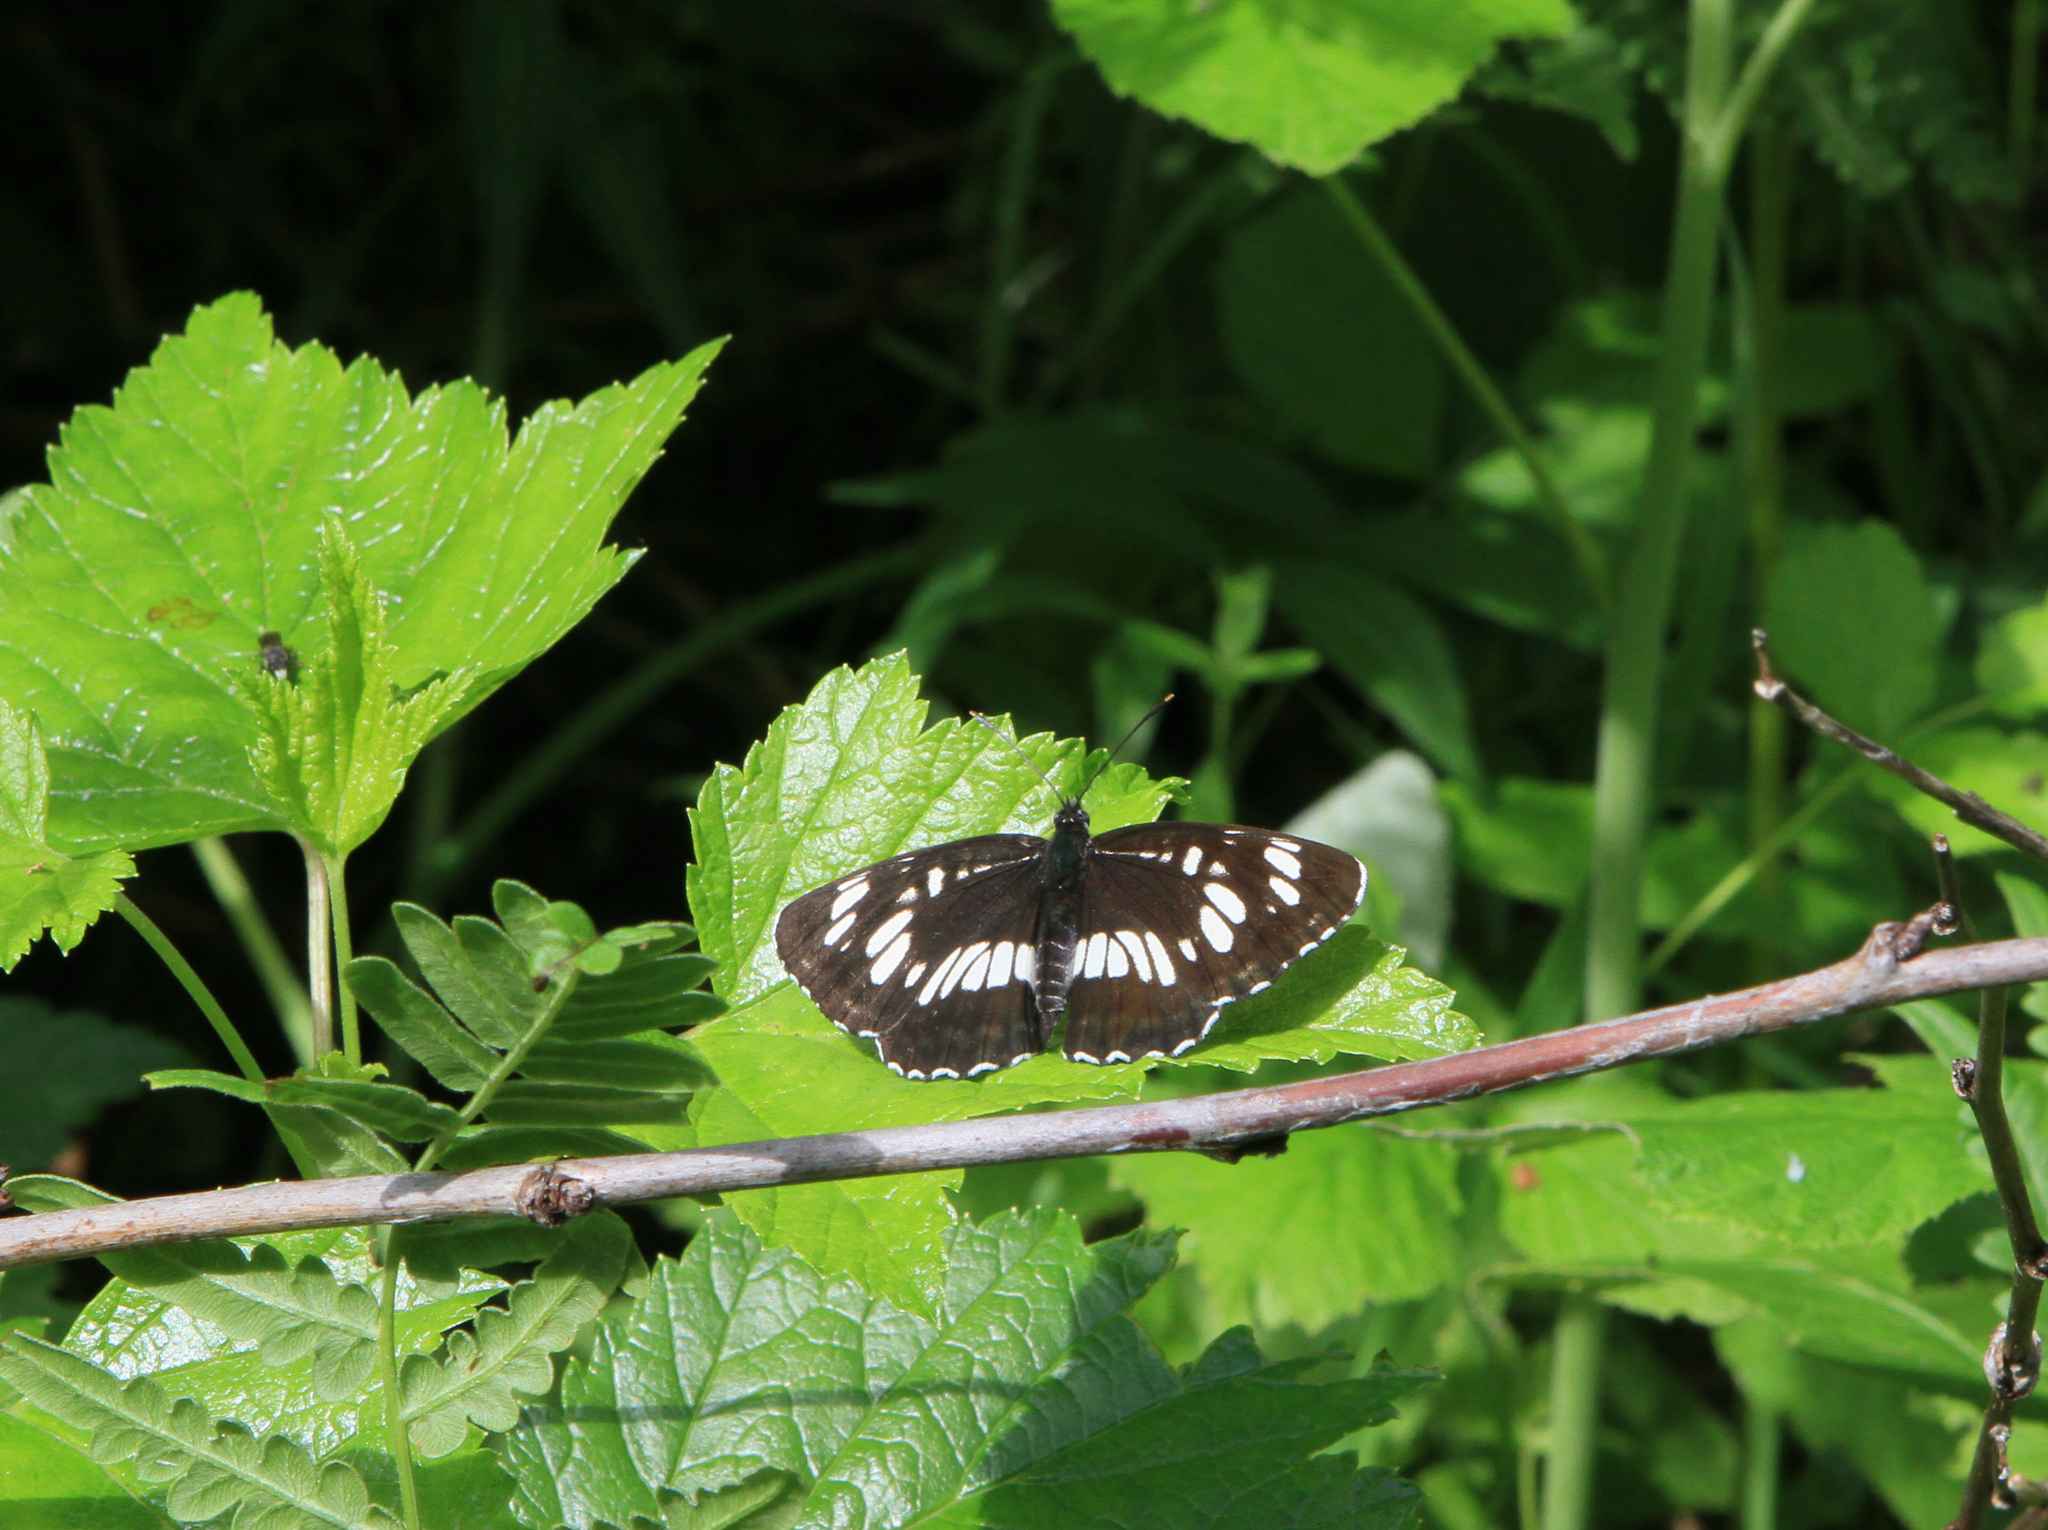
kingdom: Animalia
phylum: Arthropoda
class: Insecta
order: Lepidoptera
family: Nymphalidae
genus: Neptis
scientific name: Neptis rivularis
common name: Hungarian glider
